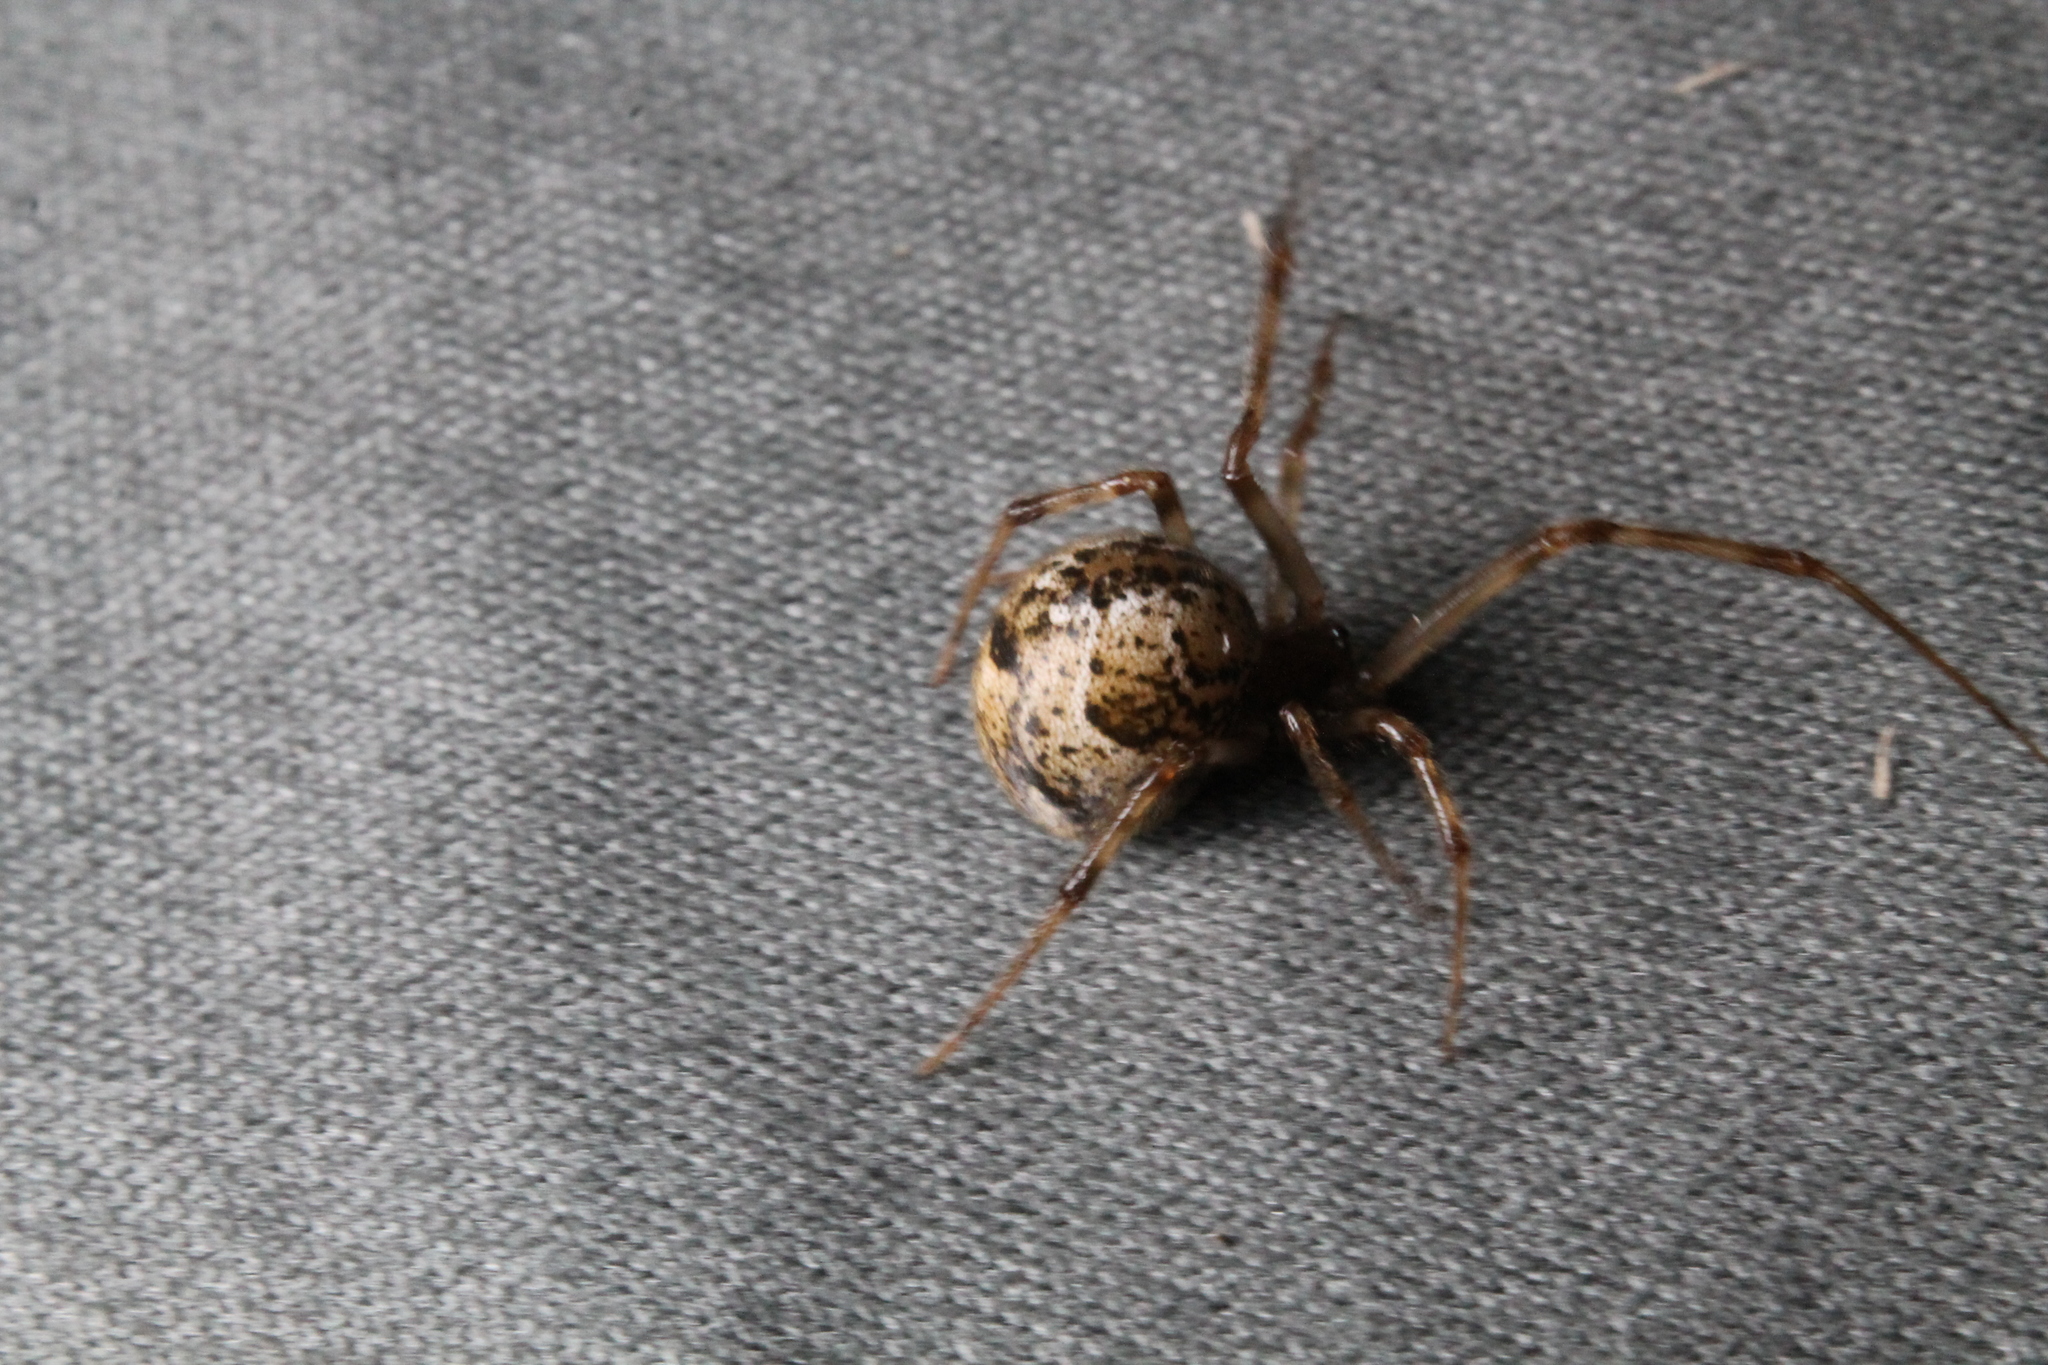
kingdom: Animalia
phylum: Arthropoda
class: Arachnida
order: Araneae
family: Theridiidae
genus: Parasteatoda
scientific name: Parasteatoda tepidariorum
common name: Common house spider
